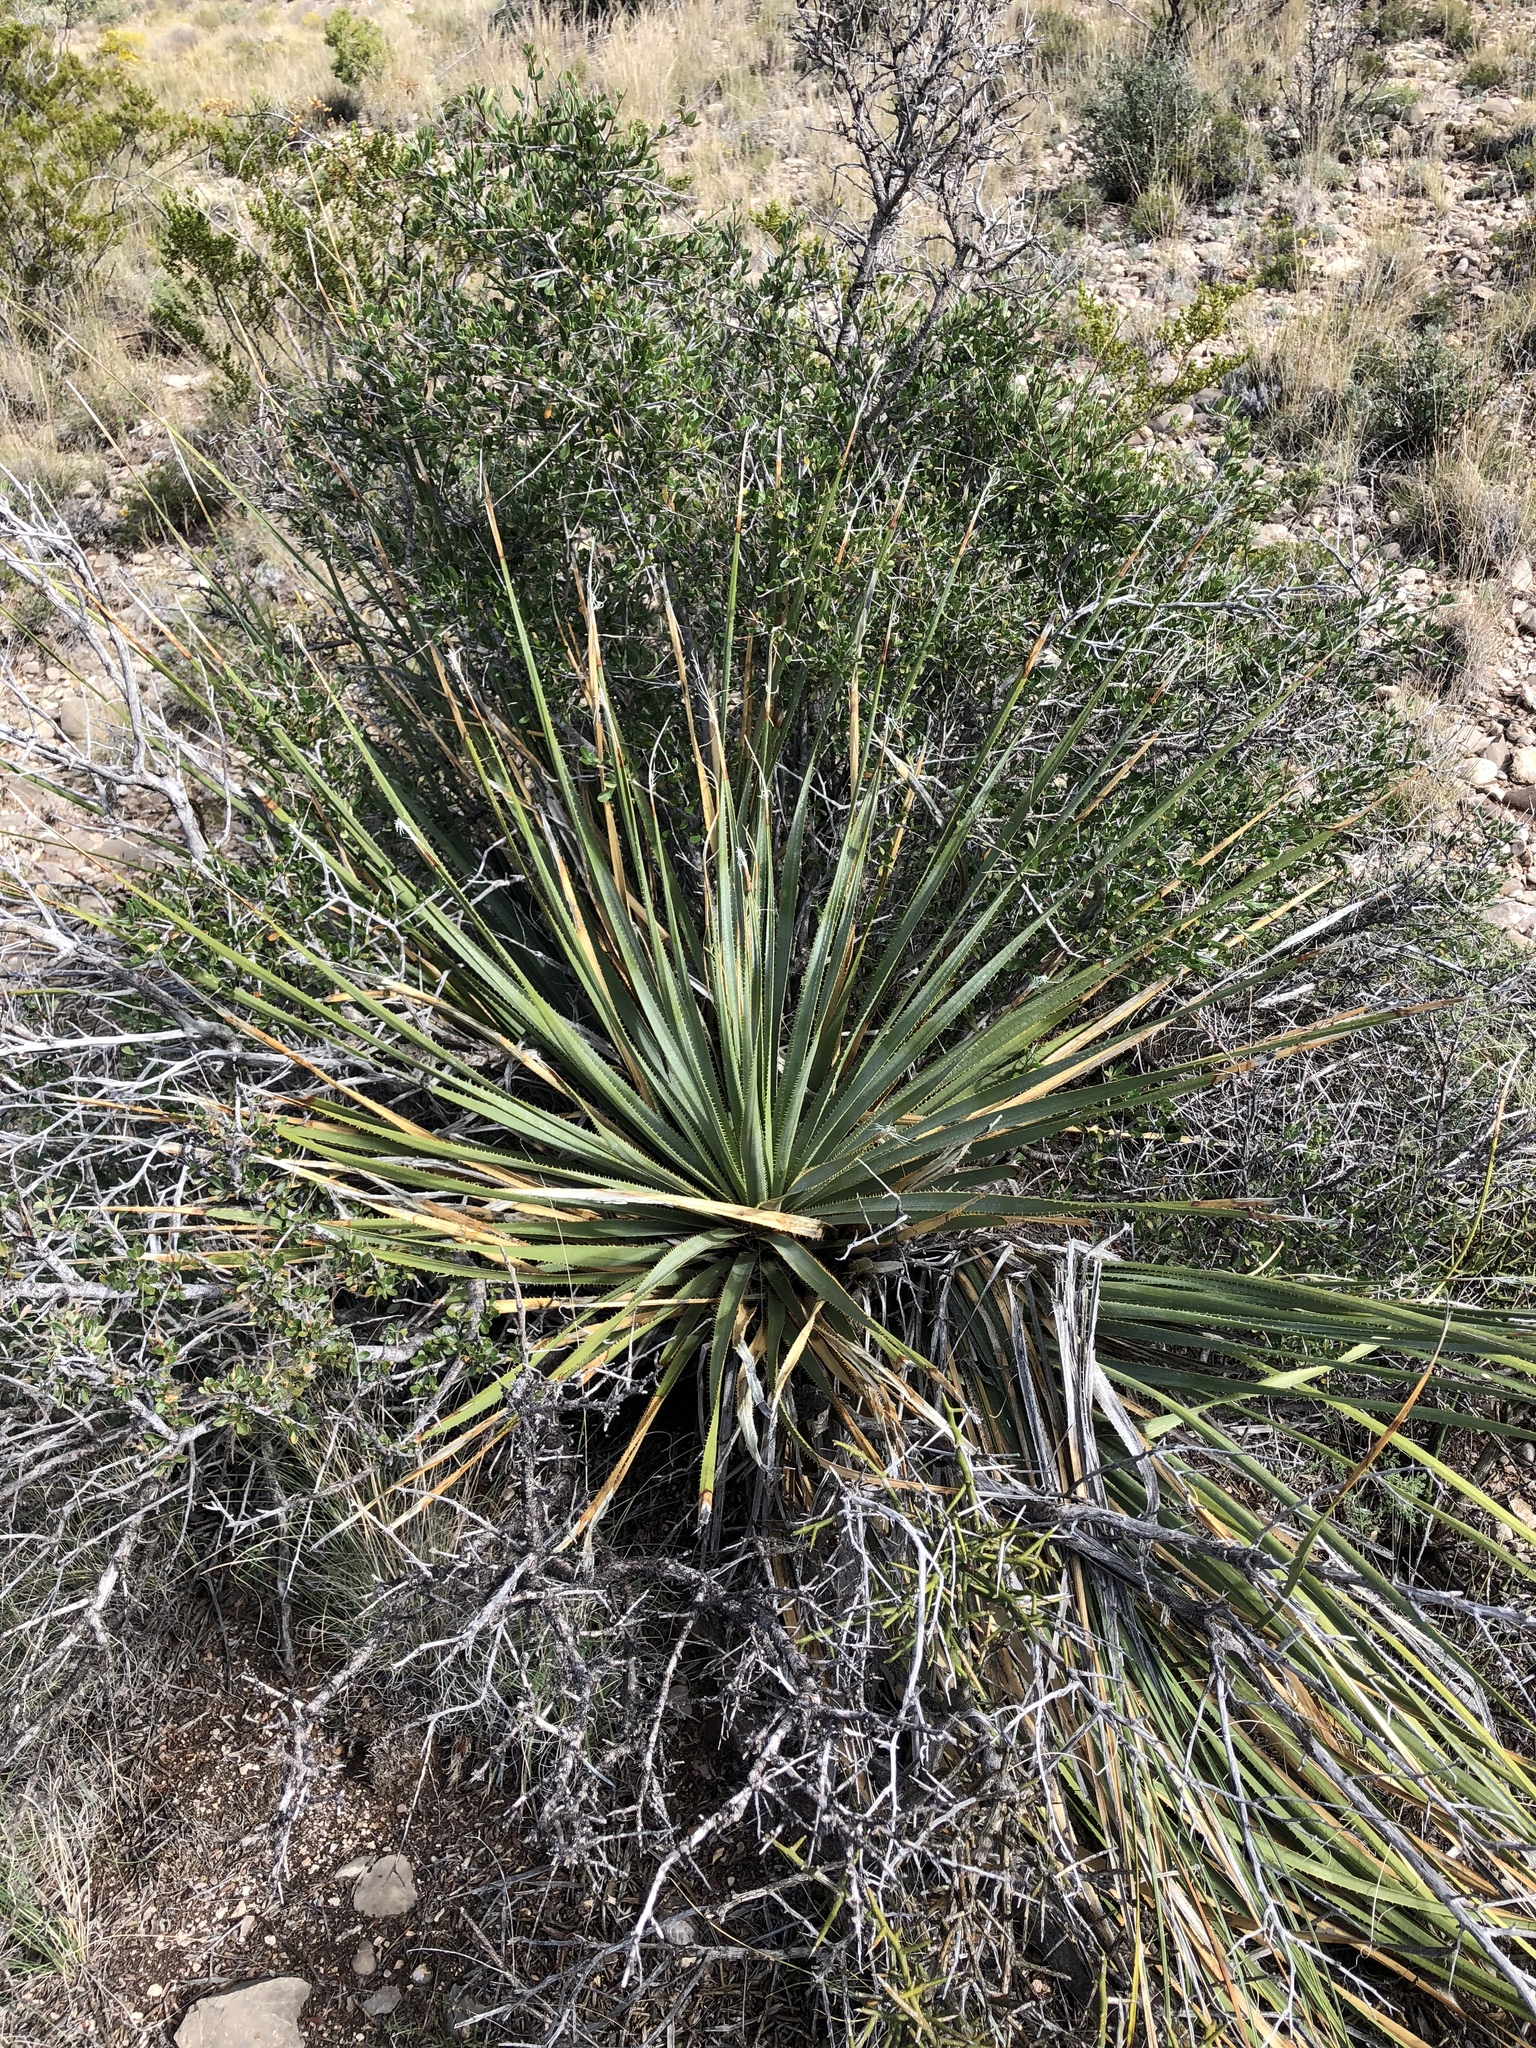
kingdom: Plantae
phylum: Tracheophyta
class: Liliopsida
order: Asparagales
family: Asparagaceae
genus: Dasylirion
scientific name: Dasylirion wheeleri
